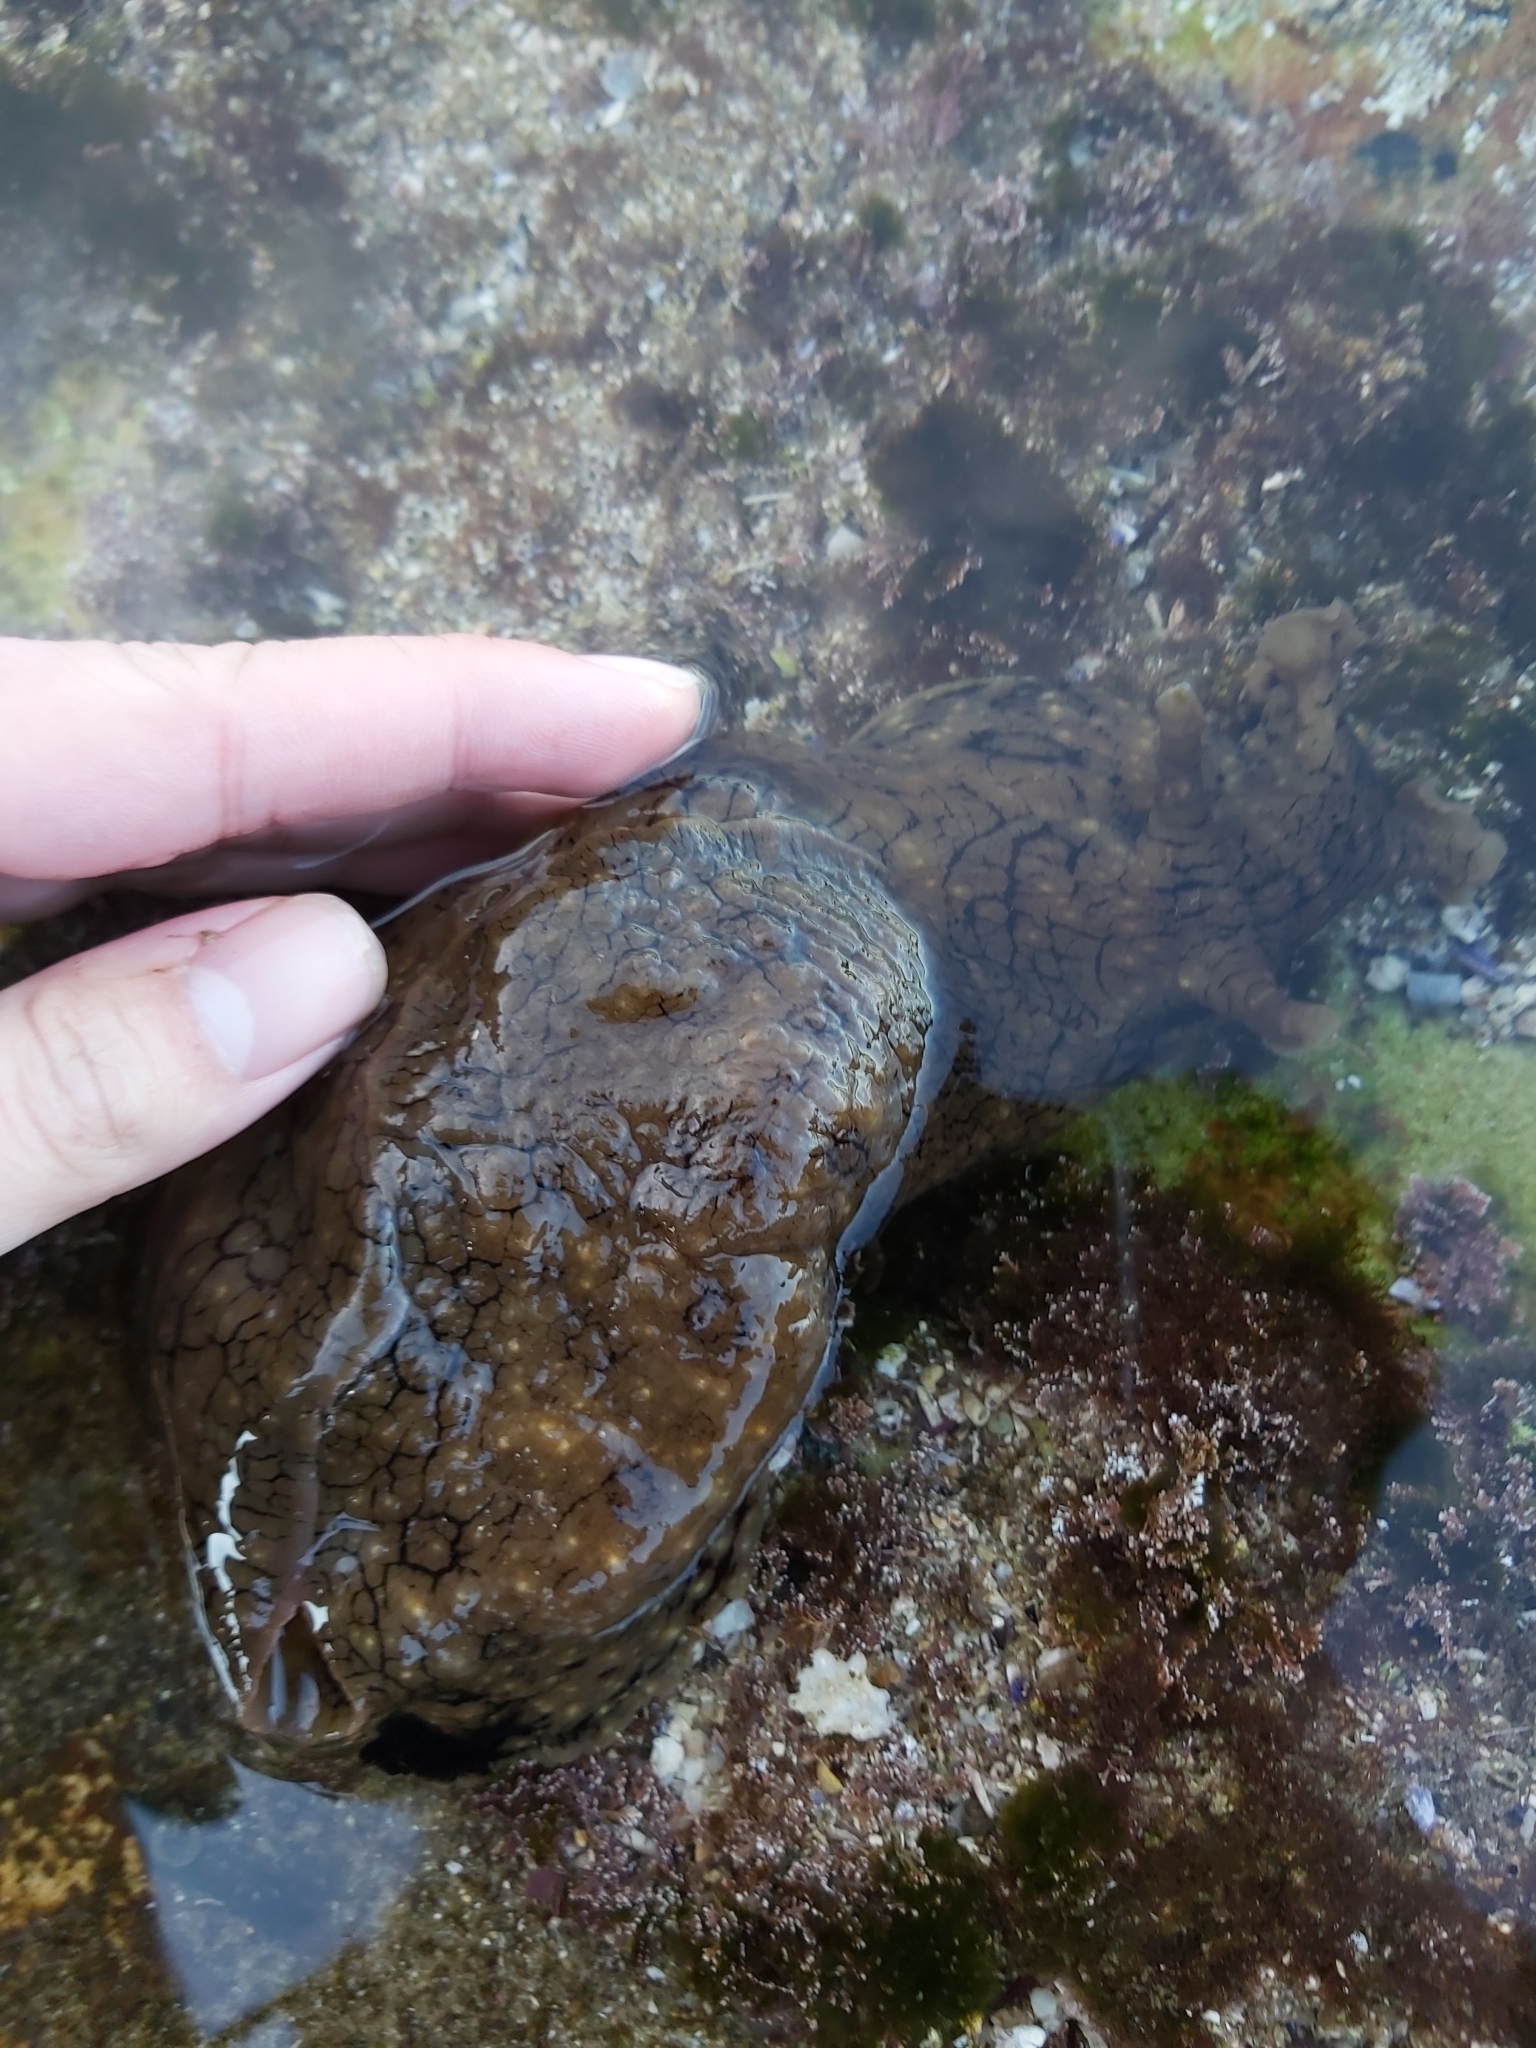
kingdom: Animalia
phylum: Mollusca
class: Gastropoda
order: Aplysiida
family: Aplysiidae
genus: Aplysia
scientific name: Aplysia argus
